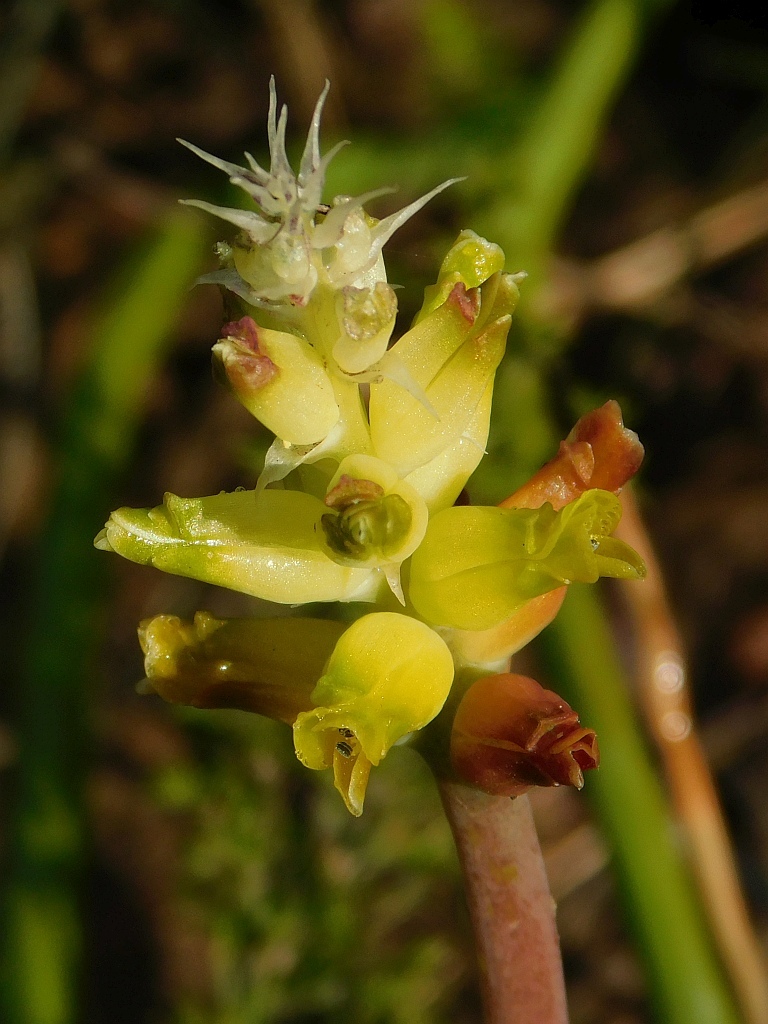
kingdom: Plantae
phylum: Tracheophyta
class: Liliopsida
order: Asparagales
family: Asparagaceae
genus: Lachenalia
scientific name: Lachenalia lutea
